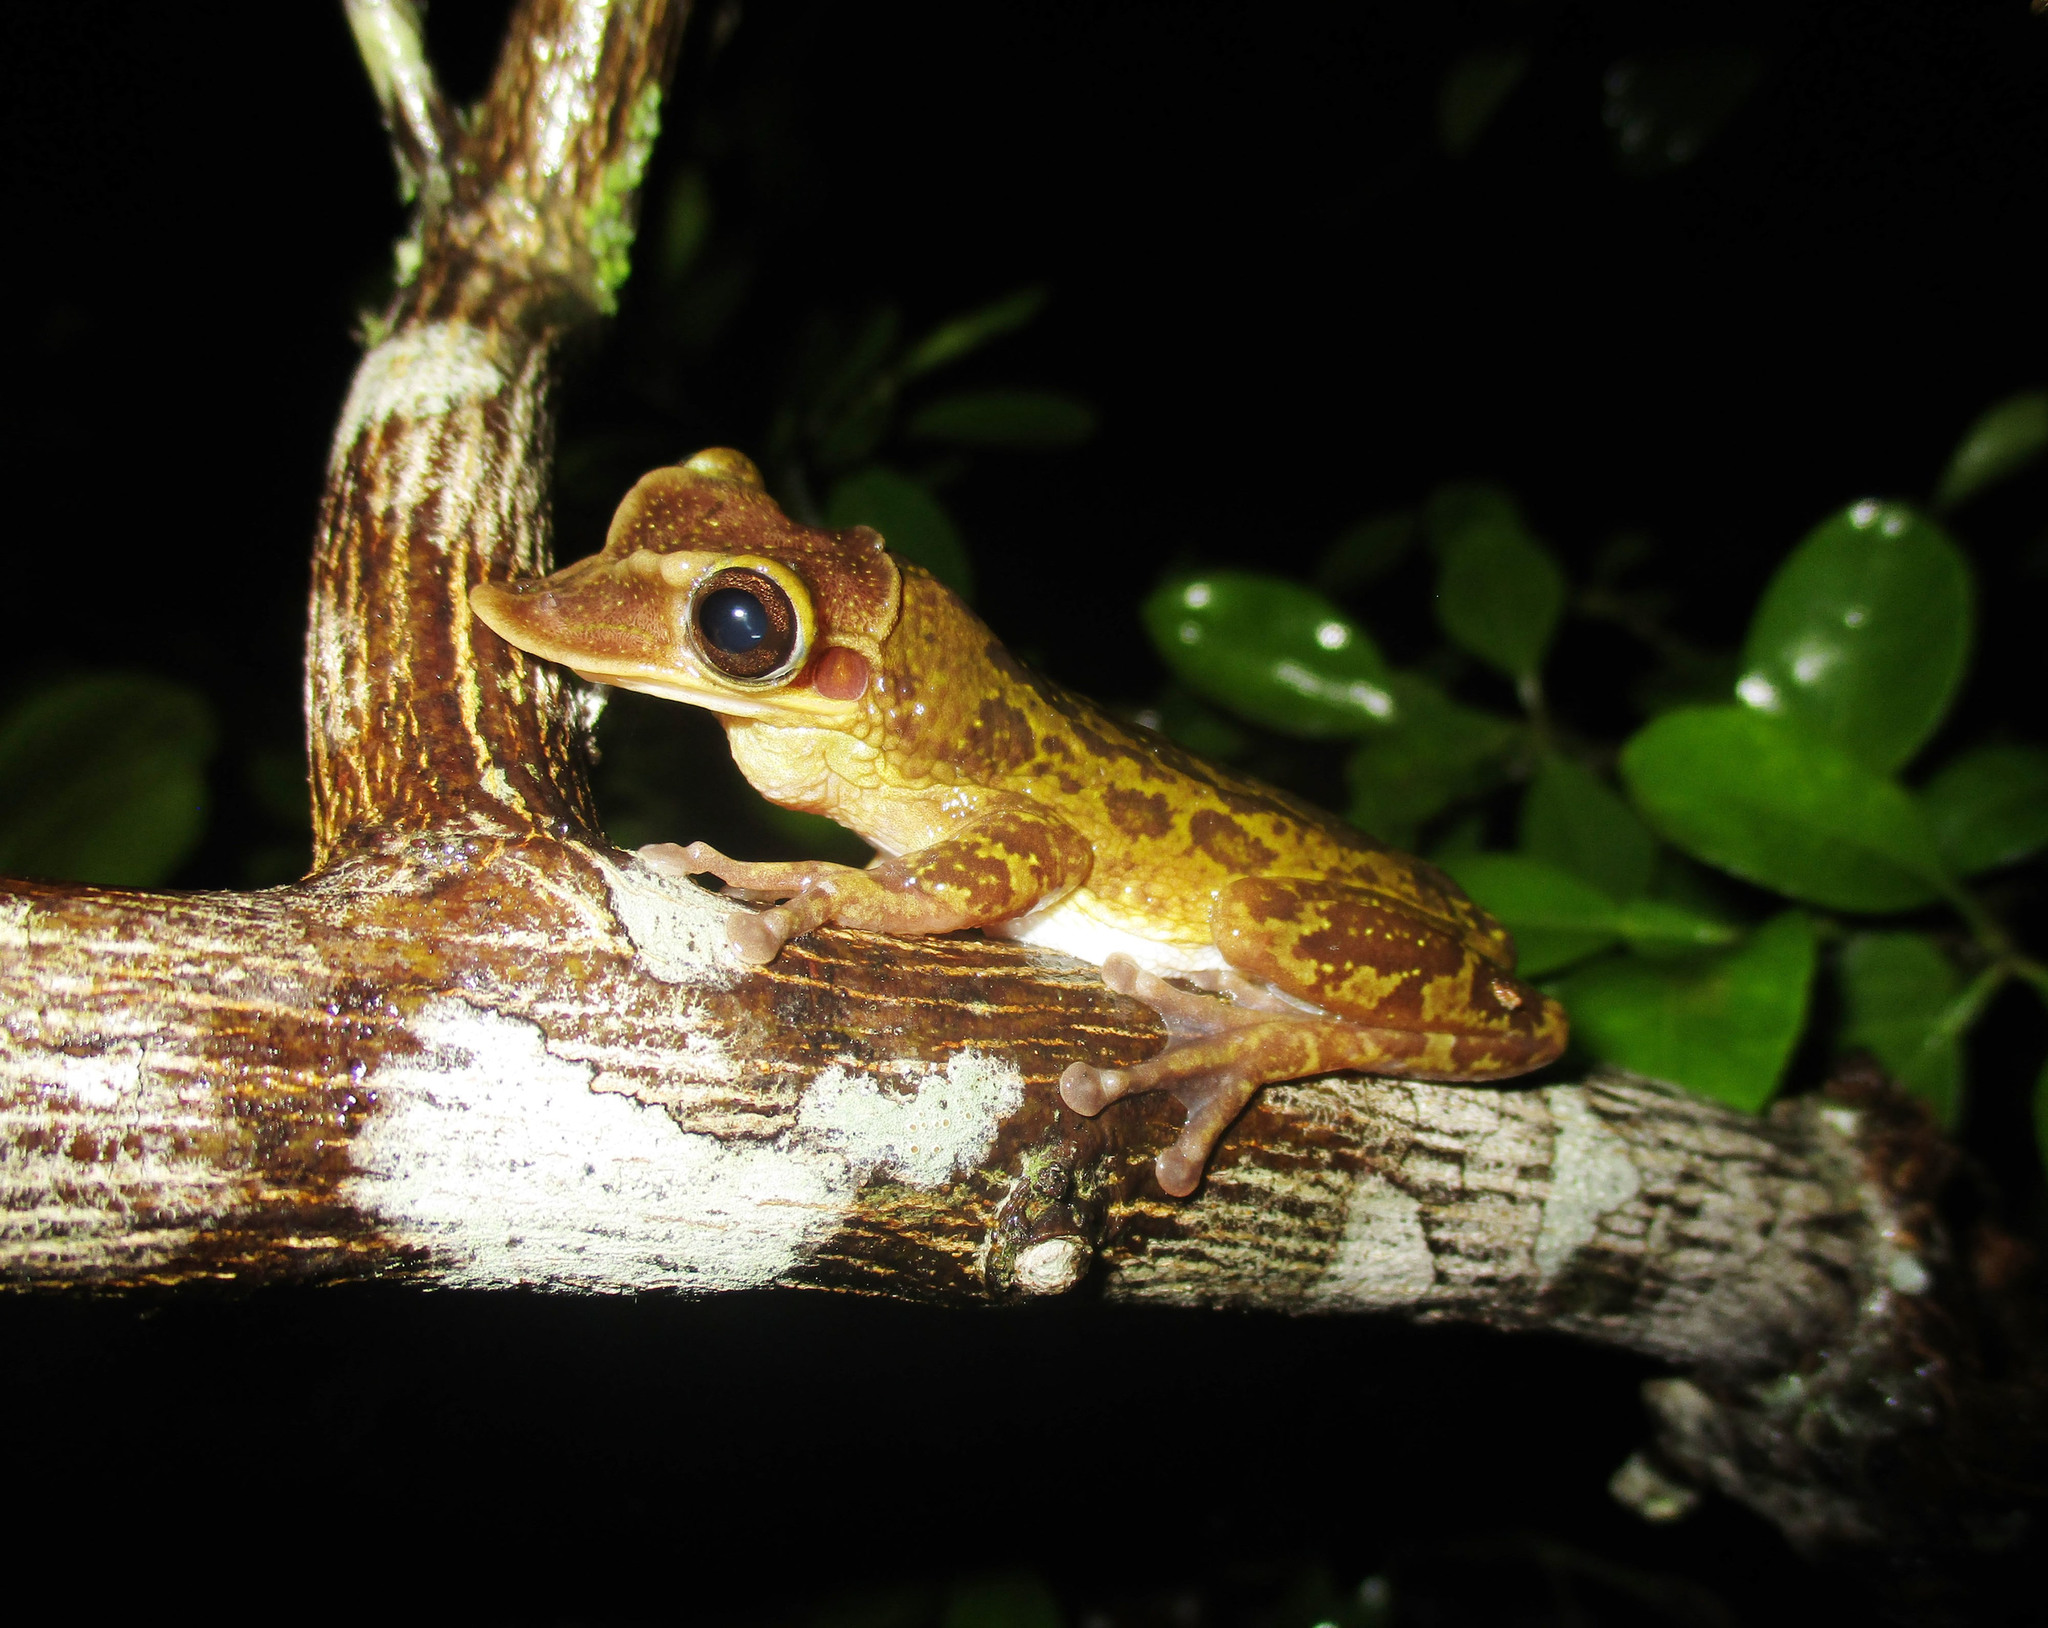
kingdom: Animalia
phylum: Chordata
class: Amphibia
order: Anura
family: Hylidae
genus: Triprion
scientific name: Triprion petasatus
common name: Yucatecan casque-headed treefrog
